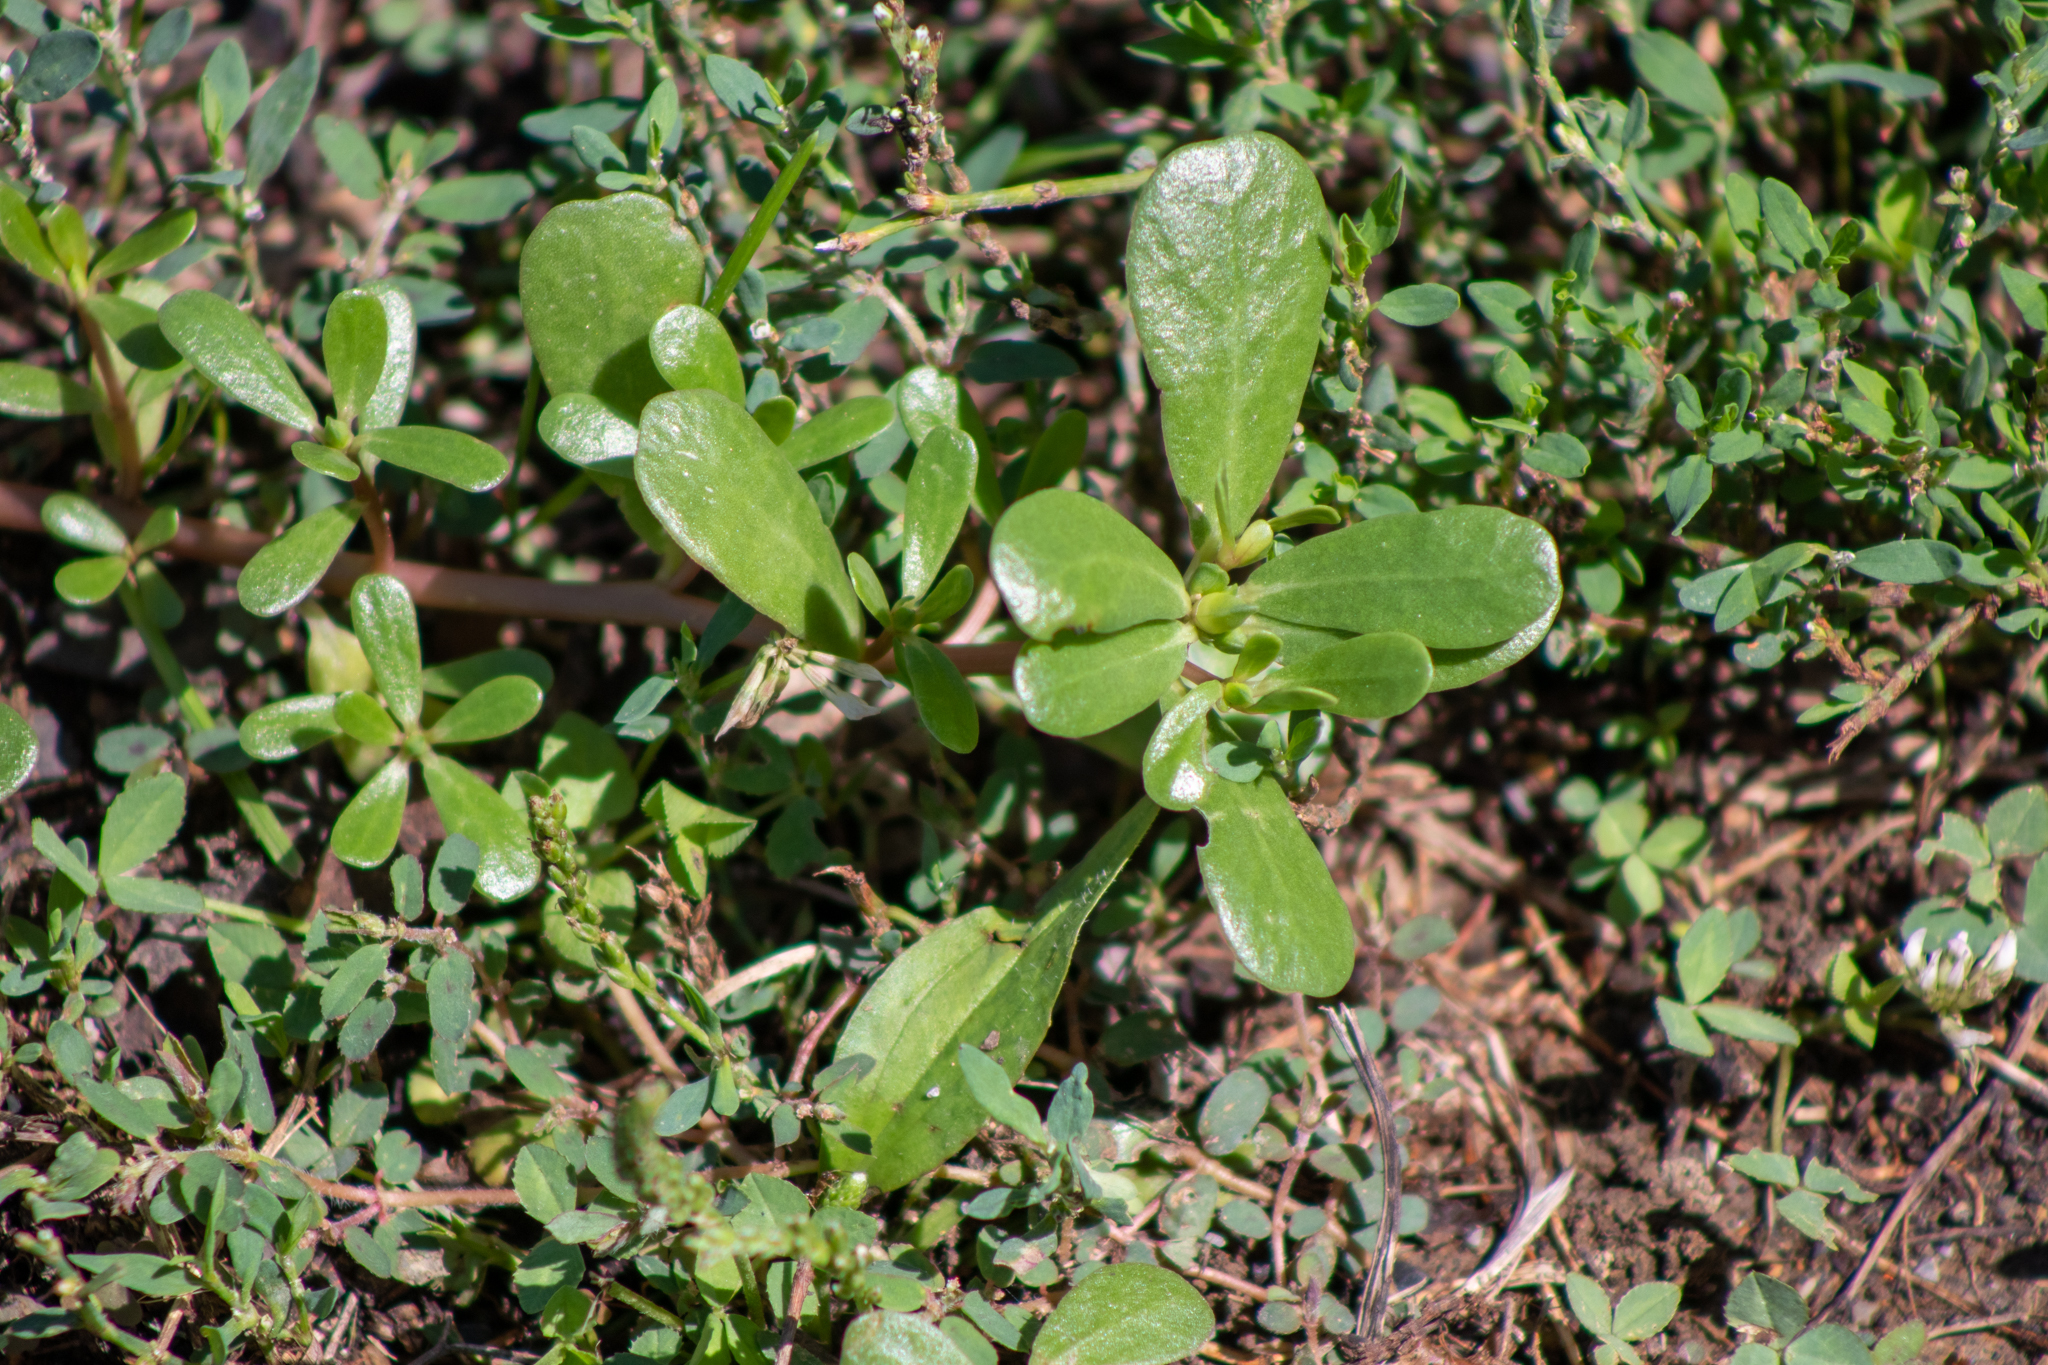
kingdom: Plantae
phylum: Tracheophyta
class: Magnoliopsida
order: Caryophyllales
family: Portulacaceae
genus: Portulaca
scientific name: Portulaca oleracea
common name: Common purslane
